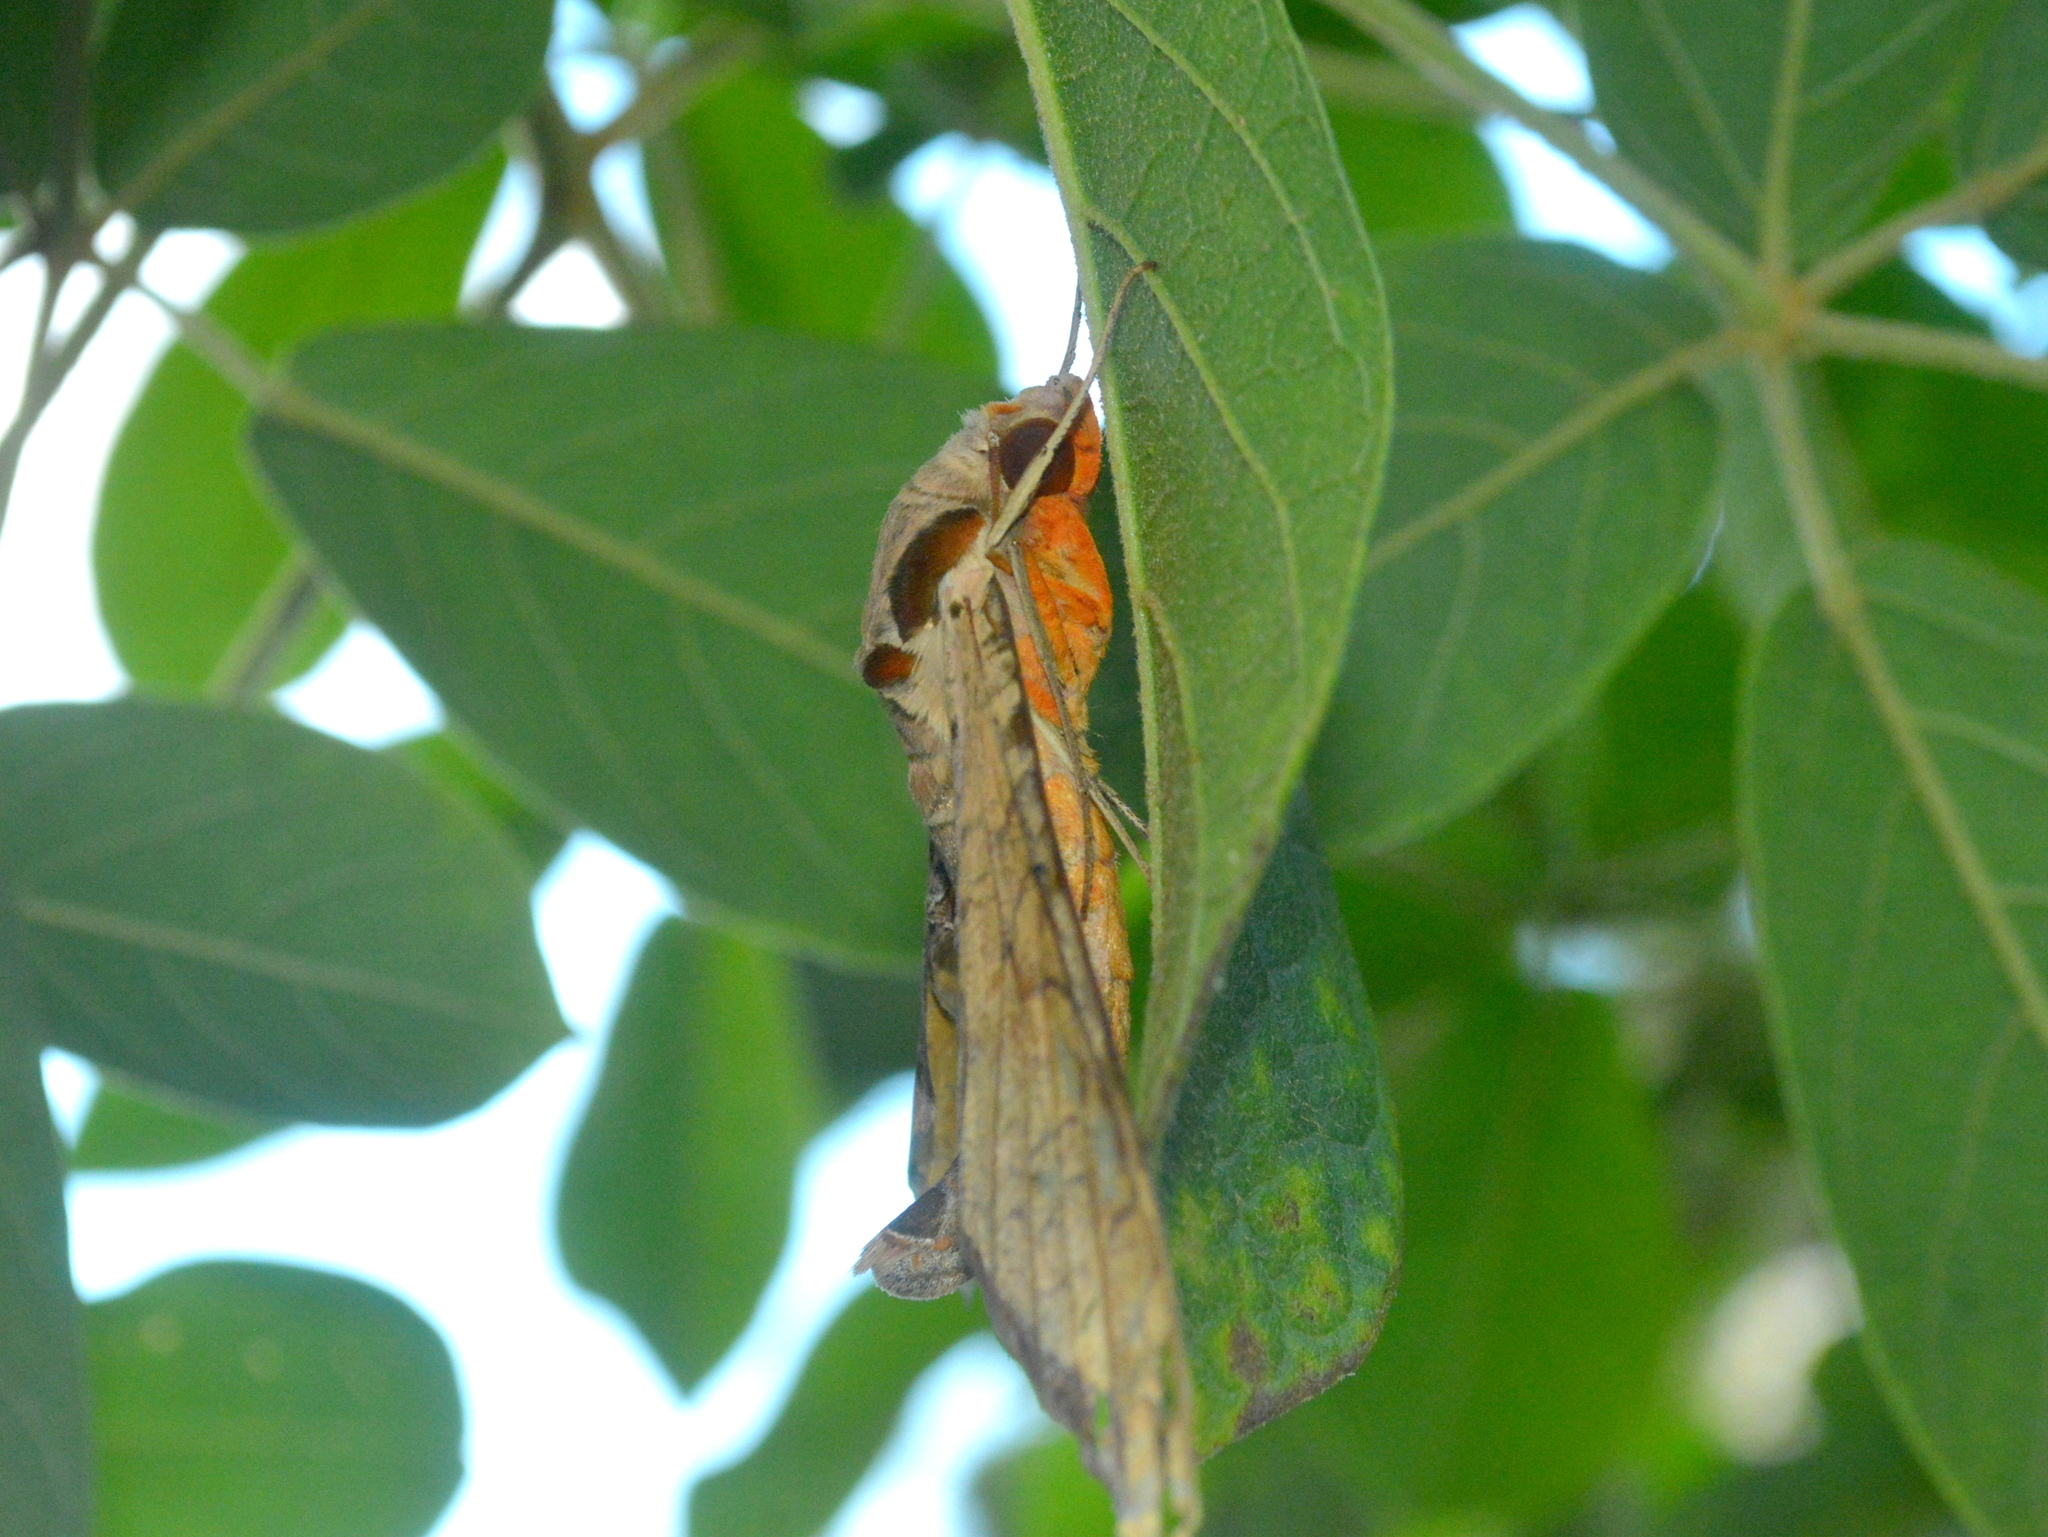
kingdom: Animalia
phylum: Arthropoda
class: Insecta
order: Lepidoptera
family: Sphingidae
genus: Protambulyx
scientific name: Protambulyx strigilis
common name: Streaked sphinx
